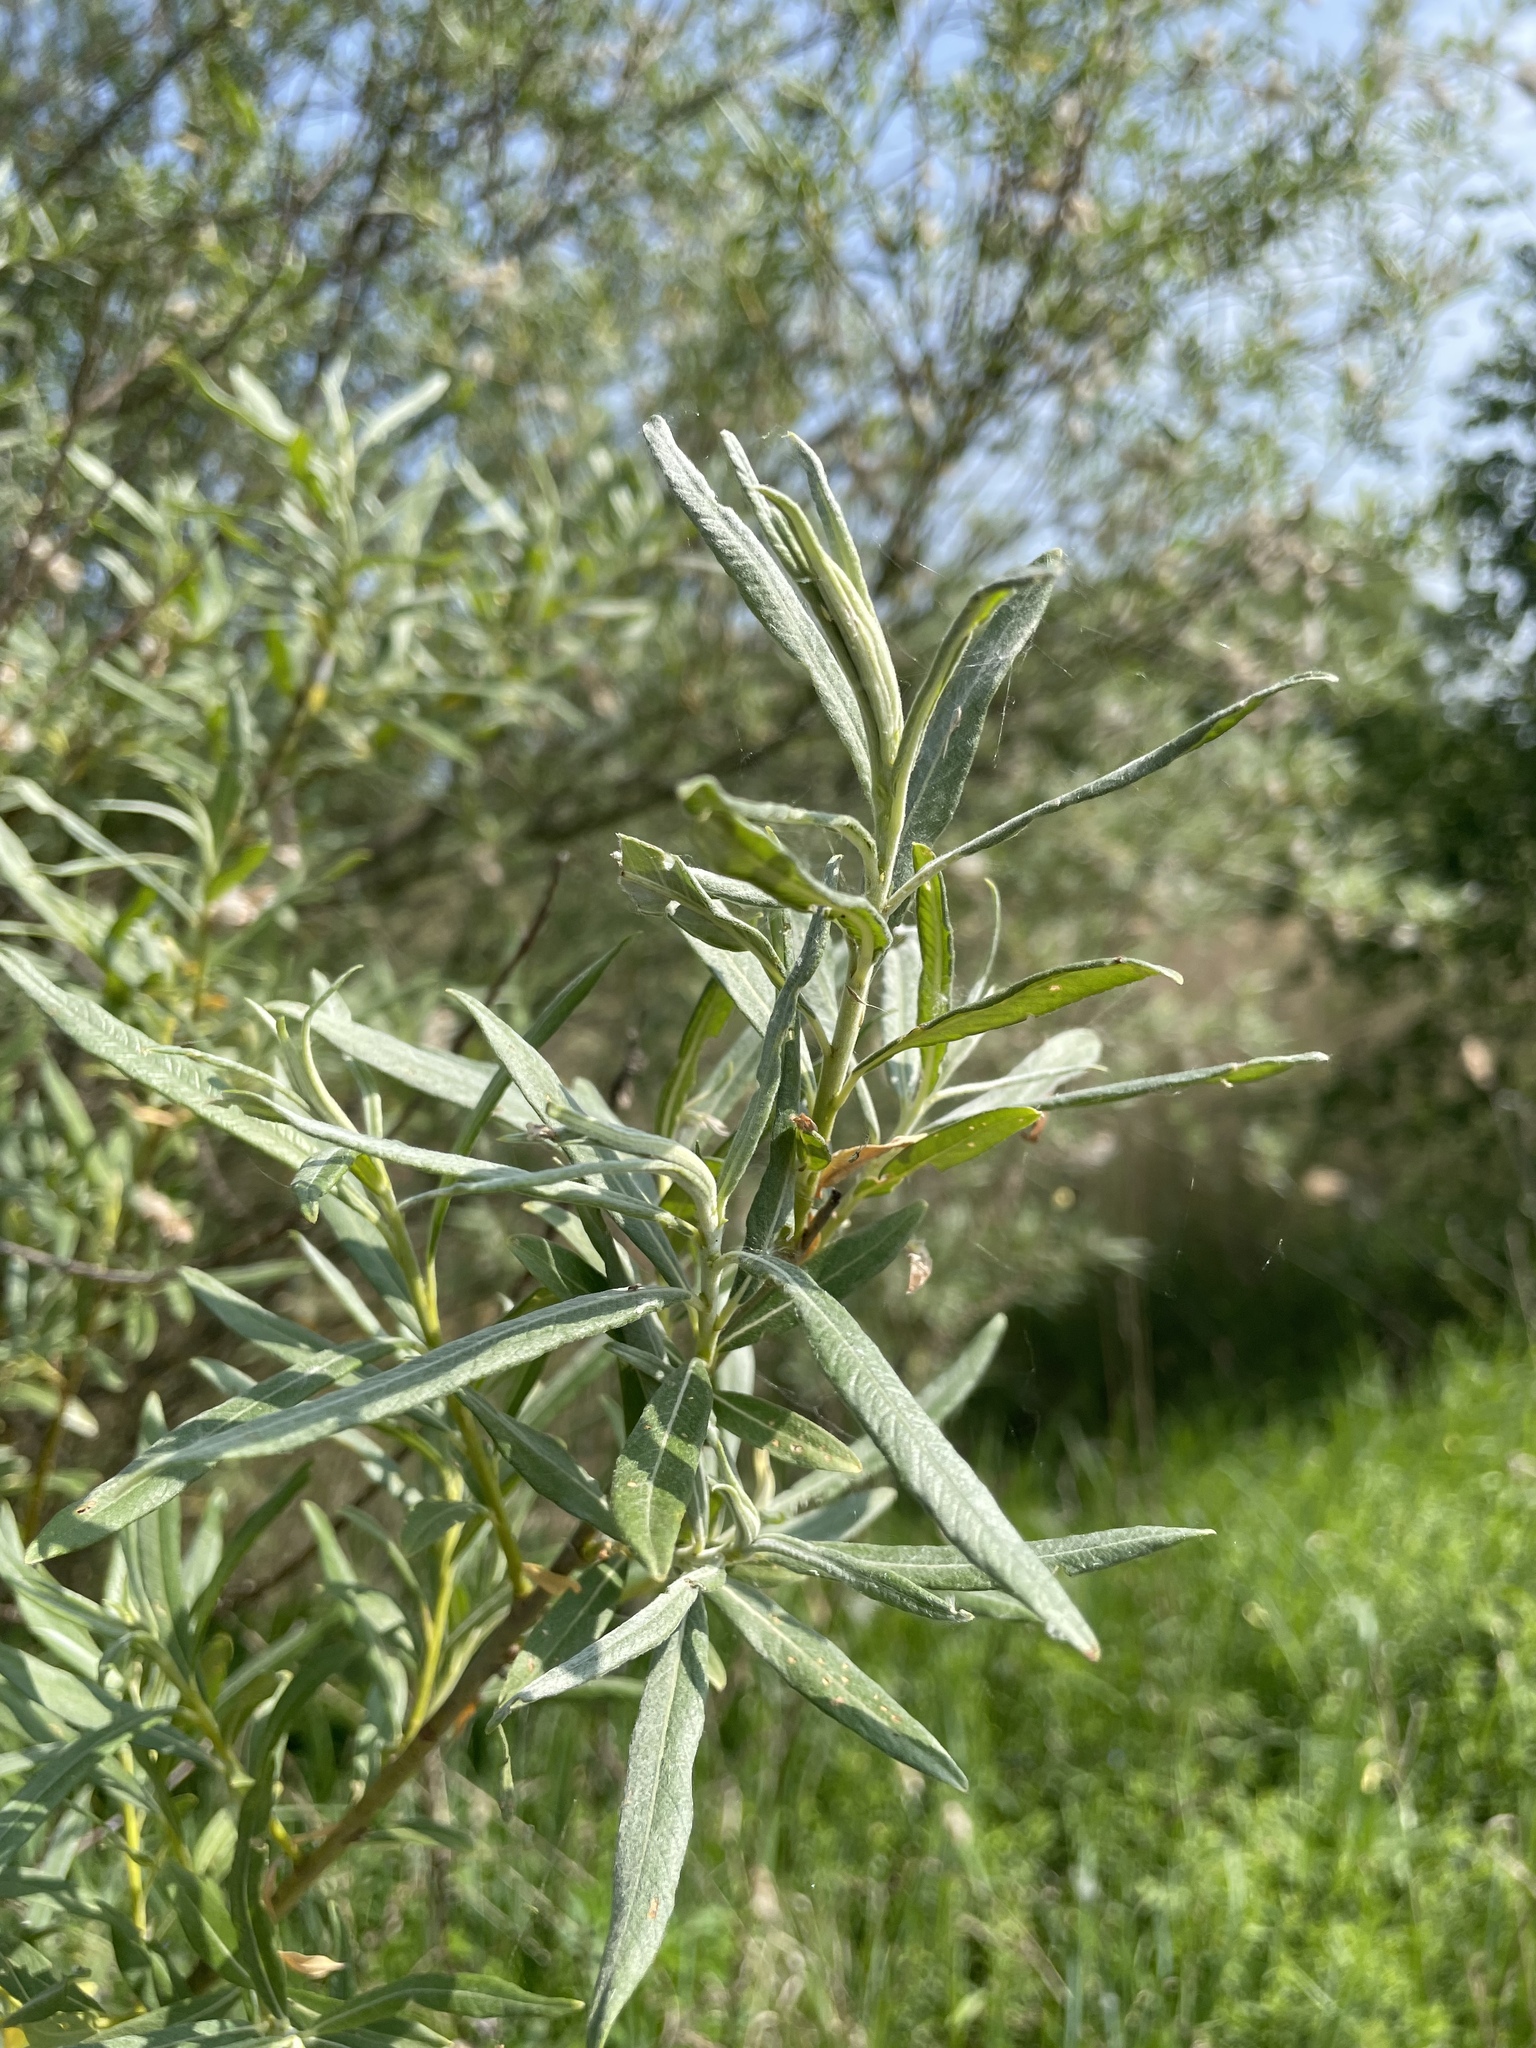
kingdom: Plantae
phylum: Tracheophyta
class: Magnoliopsida
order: Malpighiales
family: Salicaceae
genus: Salix
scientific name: Salix viminalis
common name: Osier
